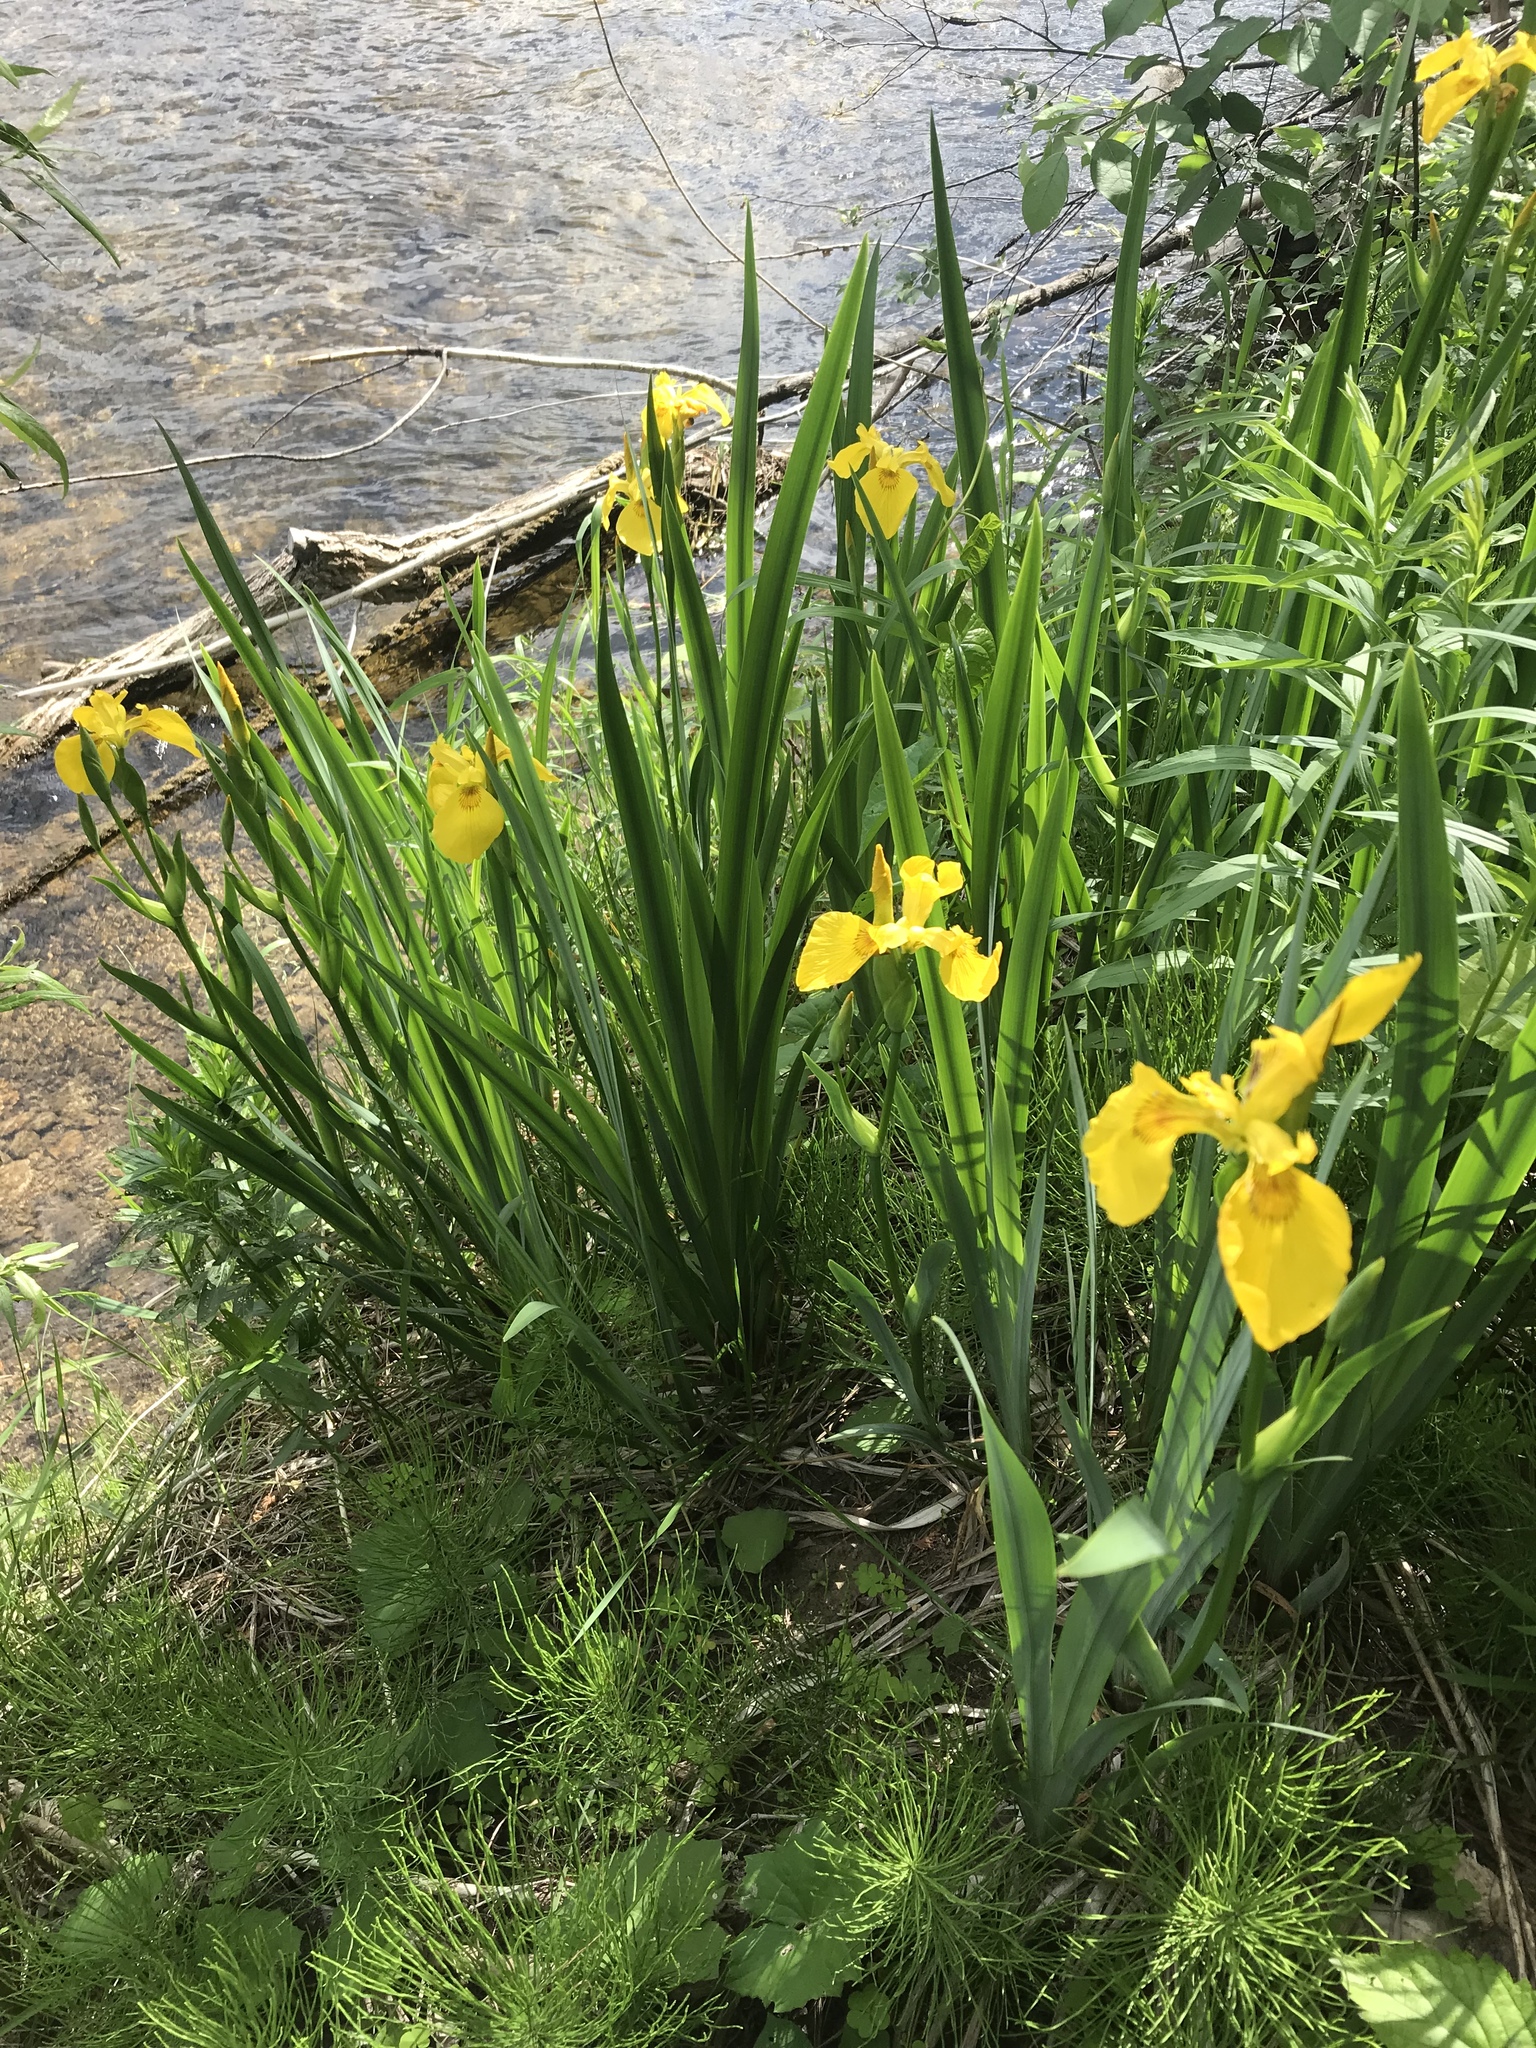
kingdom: Plantae
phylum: Tracheophyta
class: Liliopsida
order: Asparagales
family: Iridaceae
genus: Iris
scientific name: Iris pseudacorus
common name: Yellow flag
